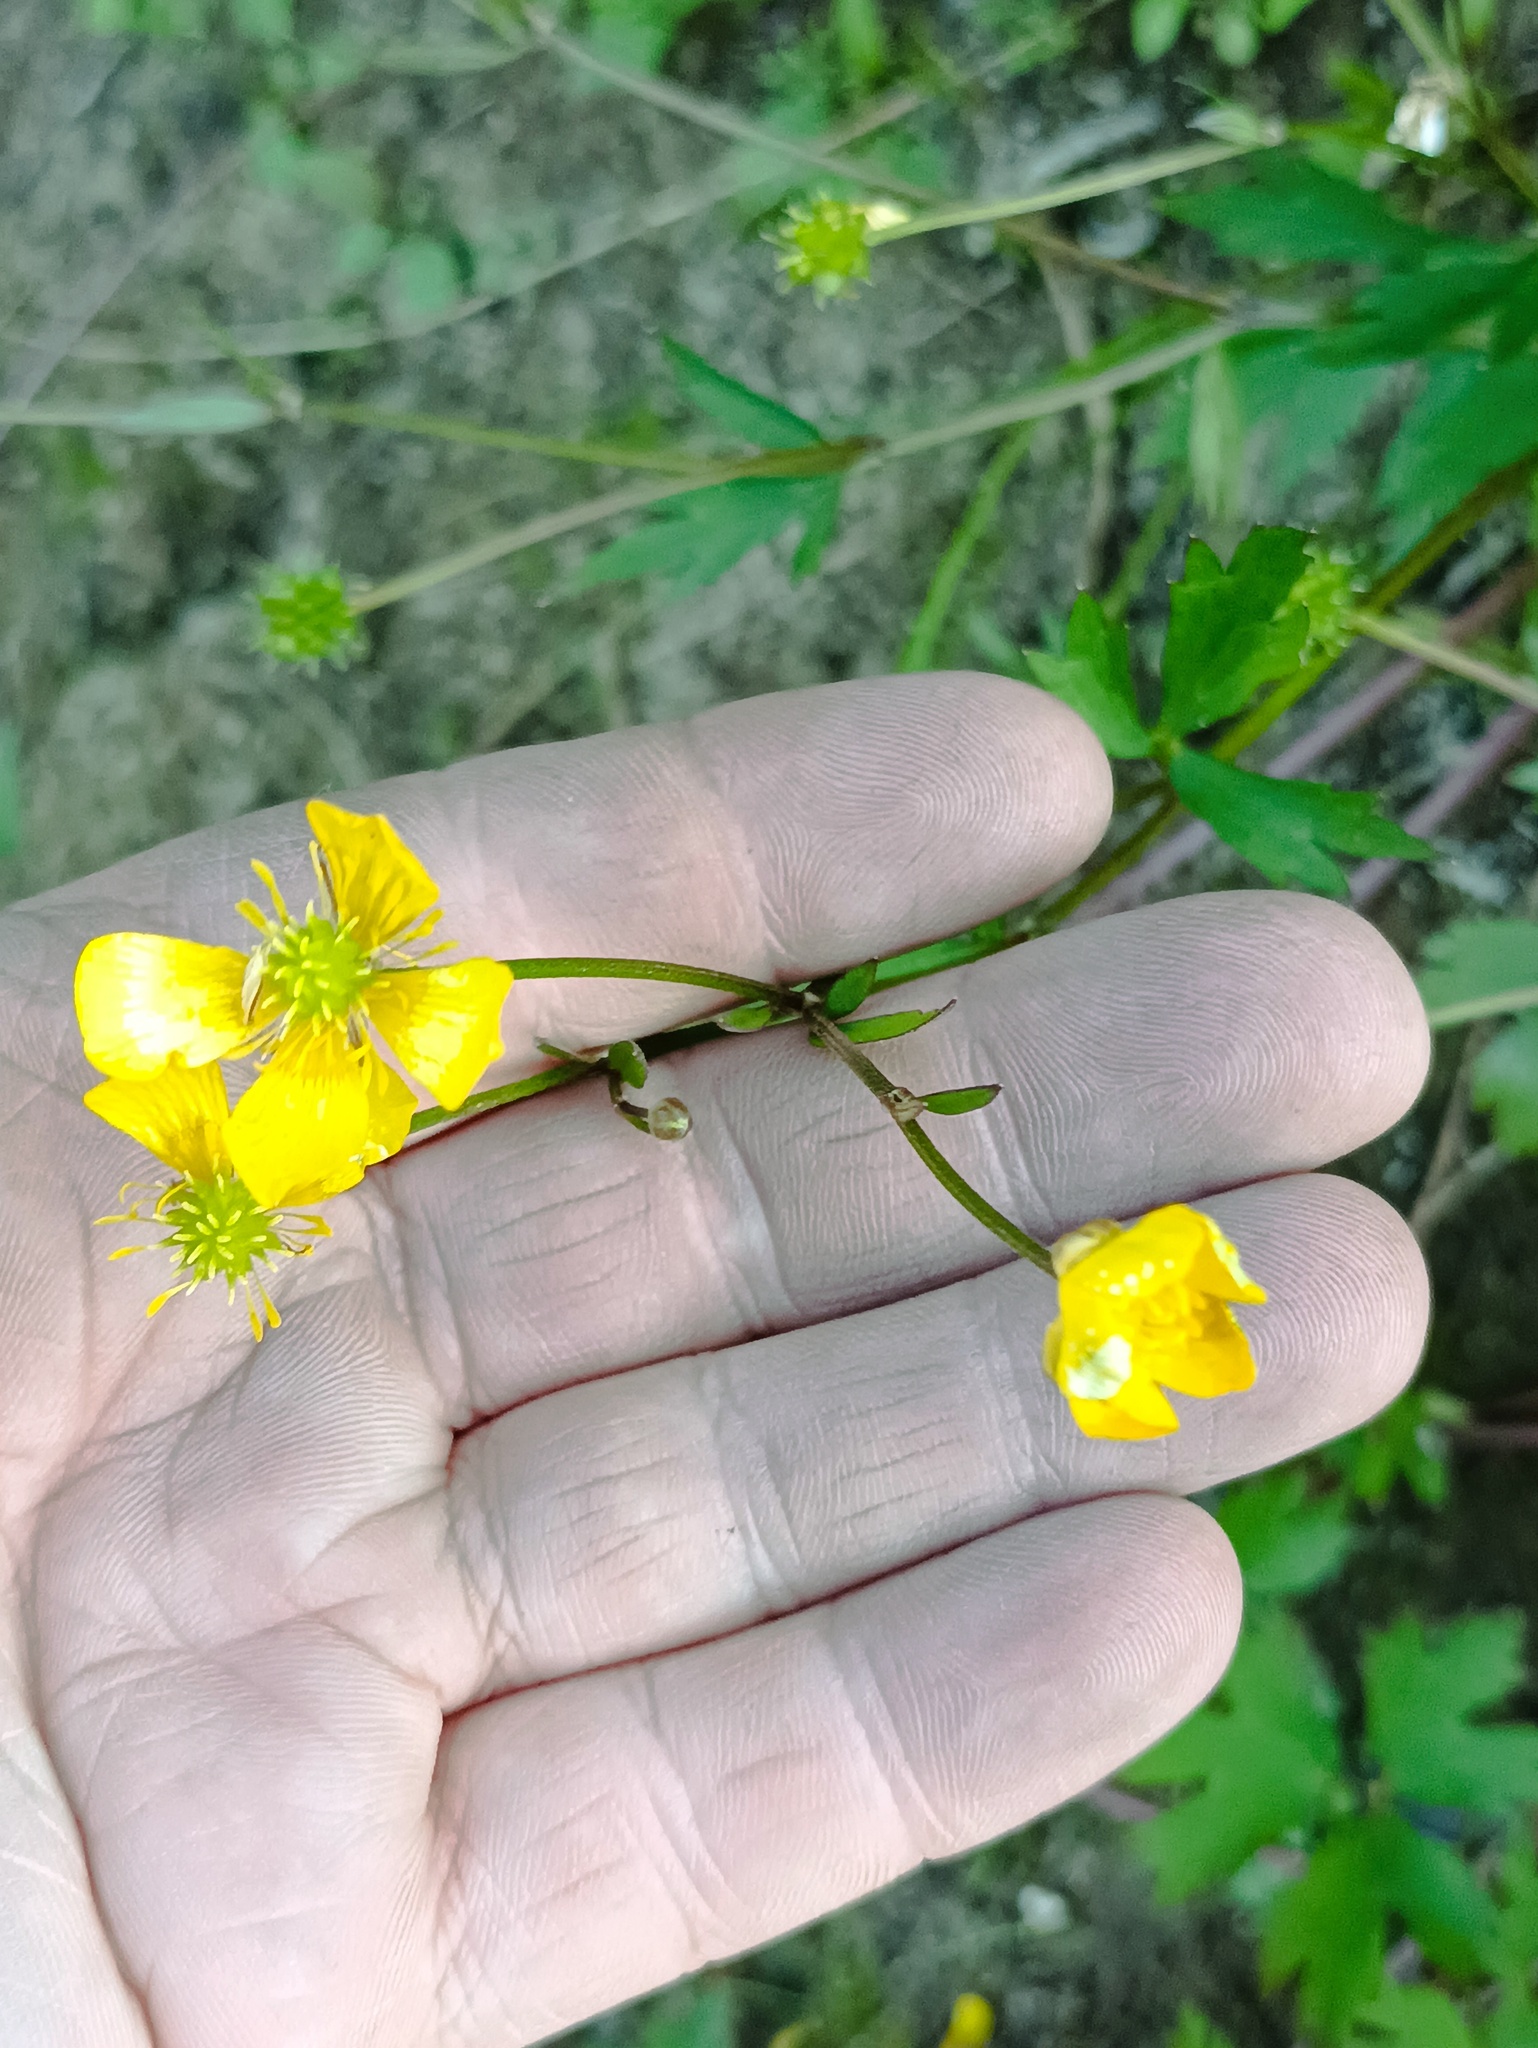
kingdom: Plantae
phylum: Tracheophyta
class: Magnoliopsida
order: Ranunculales
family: Ranunculaceae
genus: Ranunculus
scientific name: Ranunculus repens
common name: Creeping buttercup
